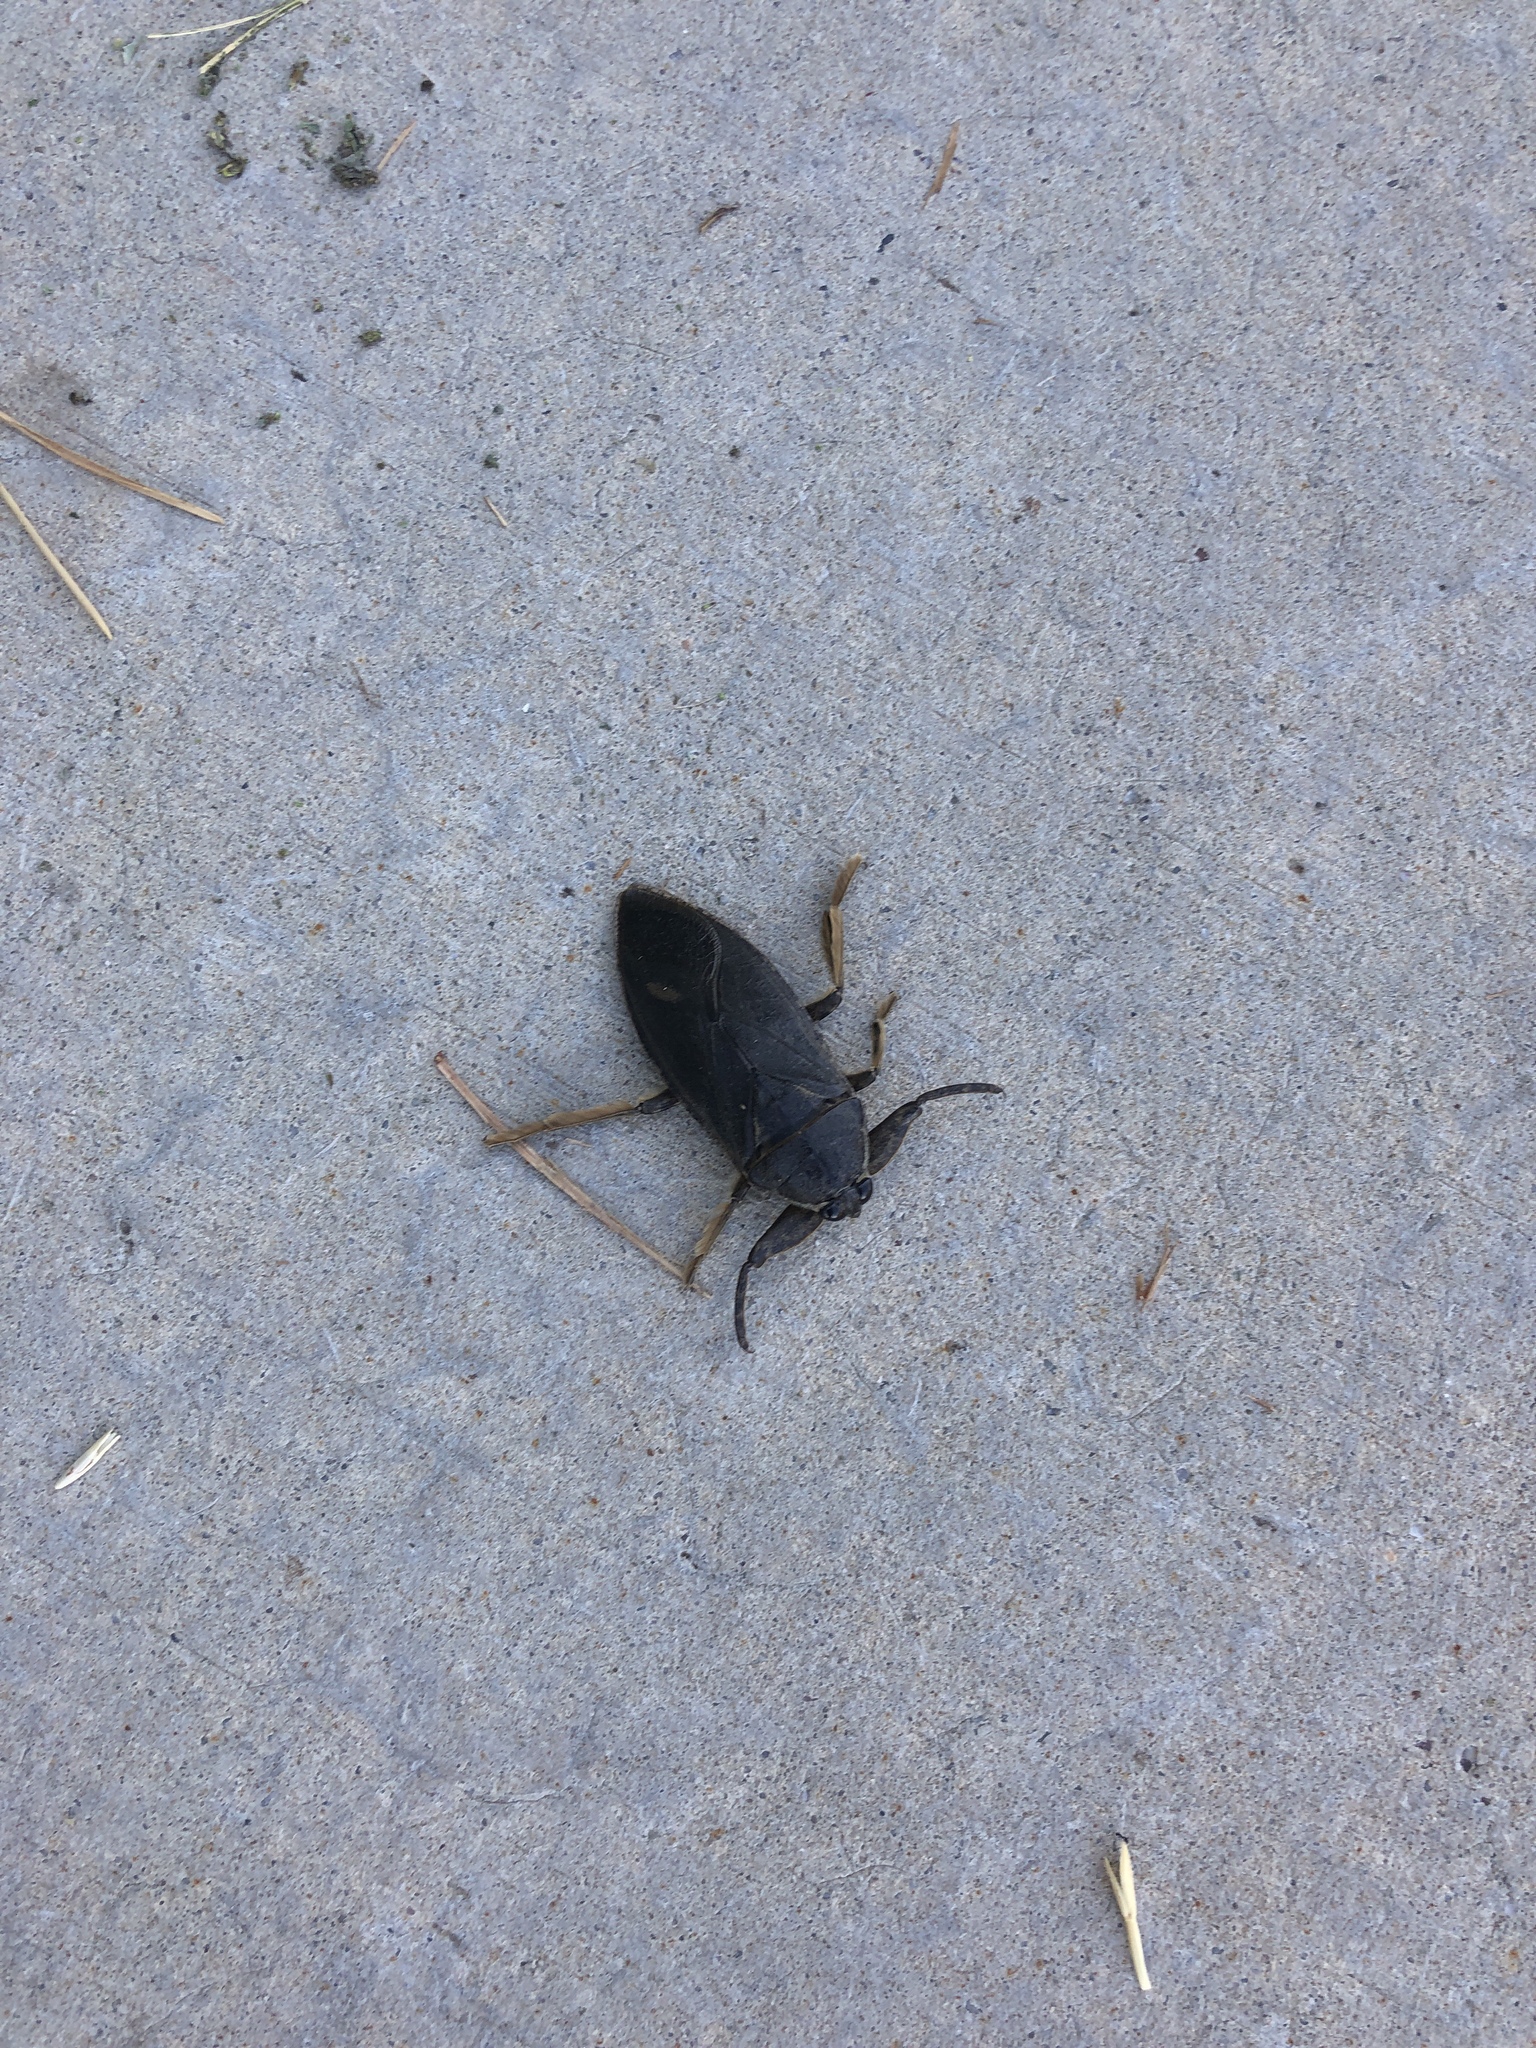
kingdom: Animalia
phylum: Arthropoda
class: Insecta
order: Hemiptera
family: Belostomatidae
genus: Lethocerus
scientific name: Lethocerus americanus
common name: Giant water bug
